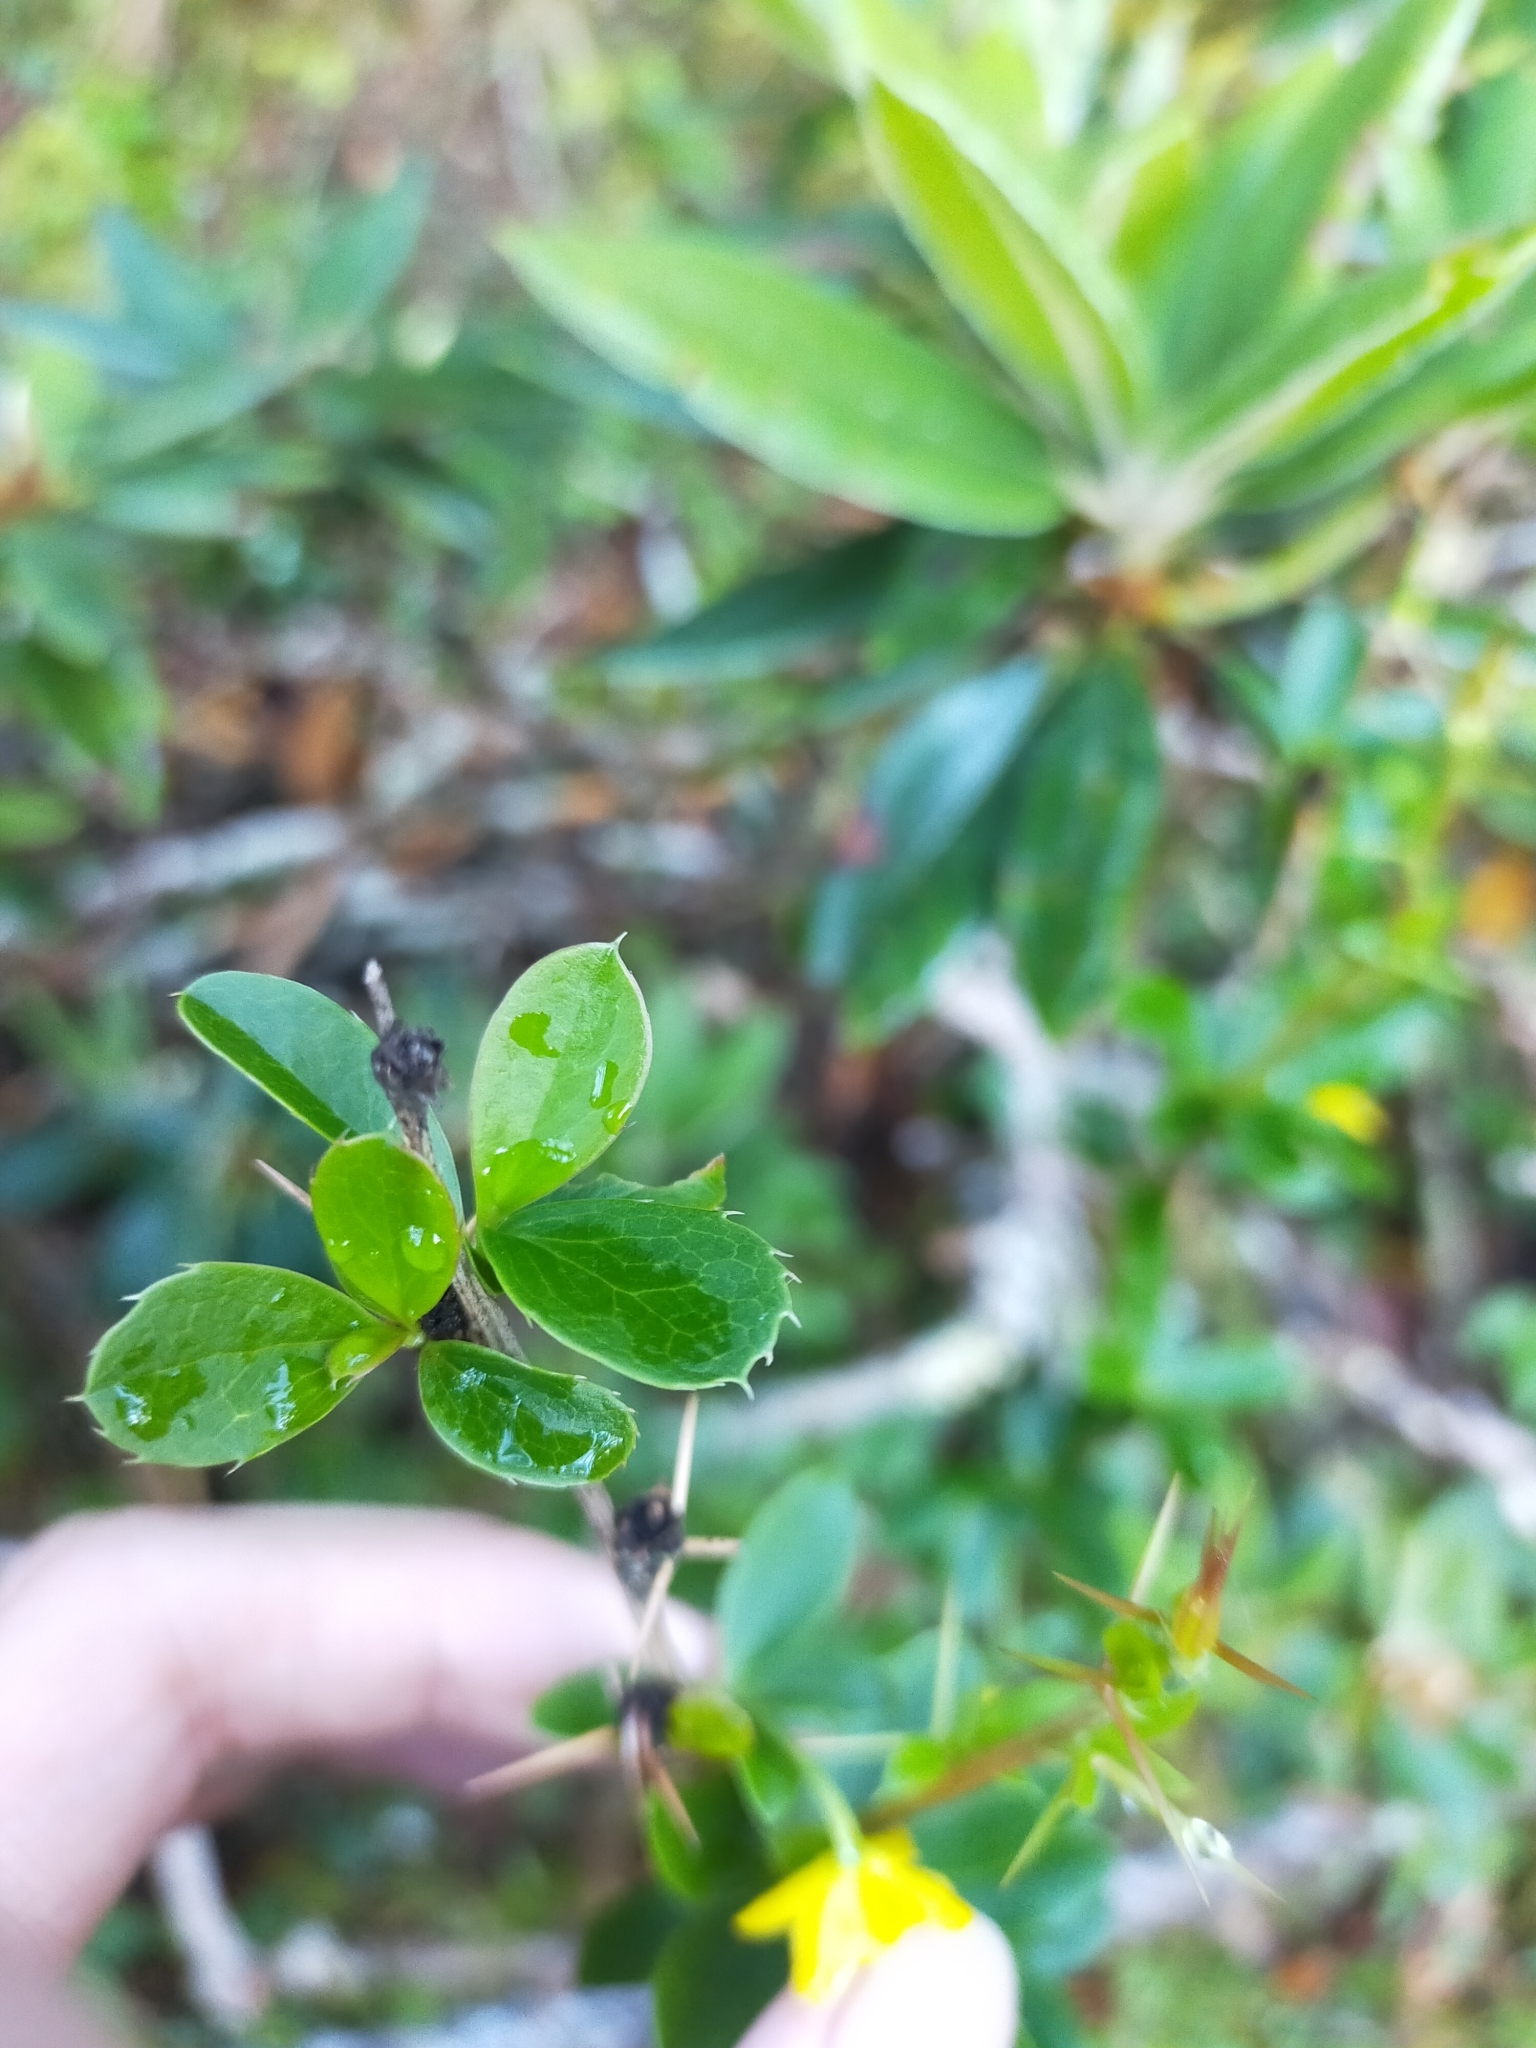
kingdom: Plantae
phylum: Tracheophyta
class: Magnoliopsida
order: Ranunculales
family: Berberidaceae
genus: Berberis
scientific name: Berberis morrisonensis
